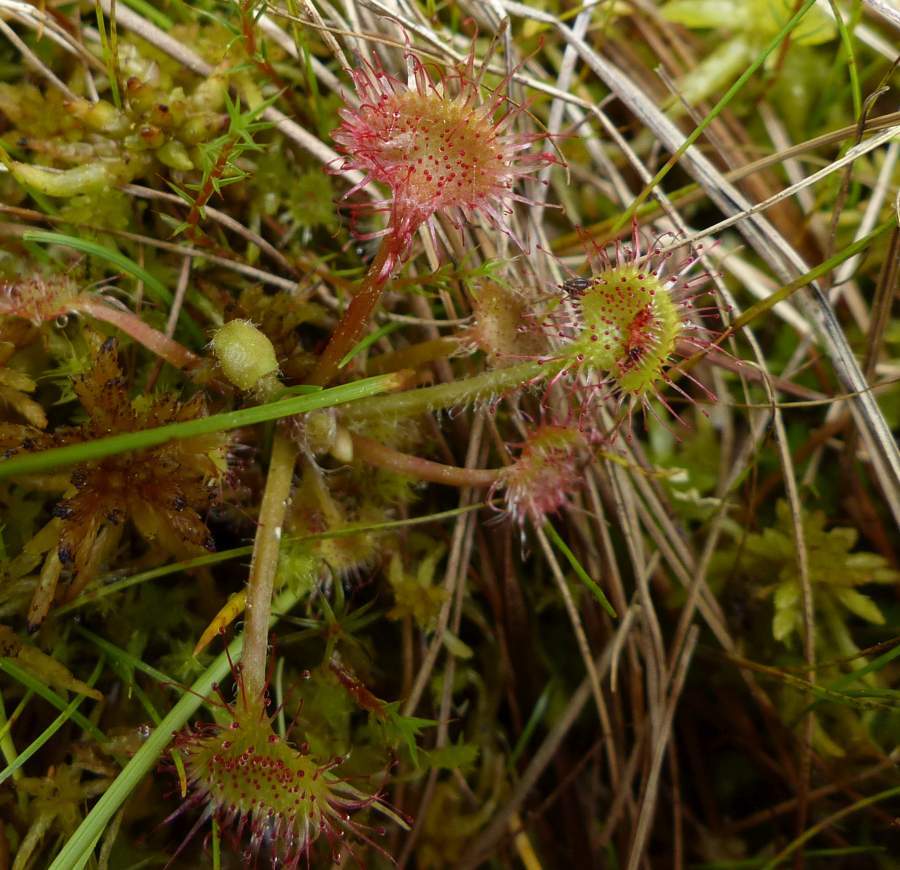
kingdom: Plantae
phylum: Tracheophyta
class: Magnoliopsida
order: Caryophyllales
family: Droseraceae
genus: Drosera
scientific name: Drosera rotundifolia
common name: Round-leaved sundew
